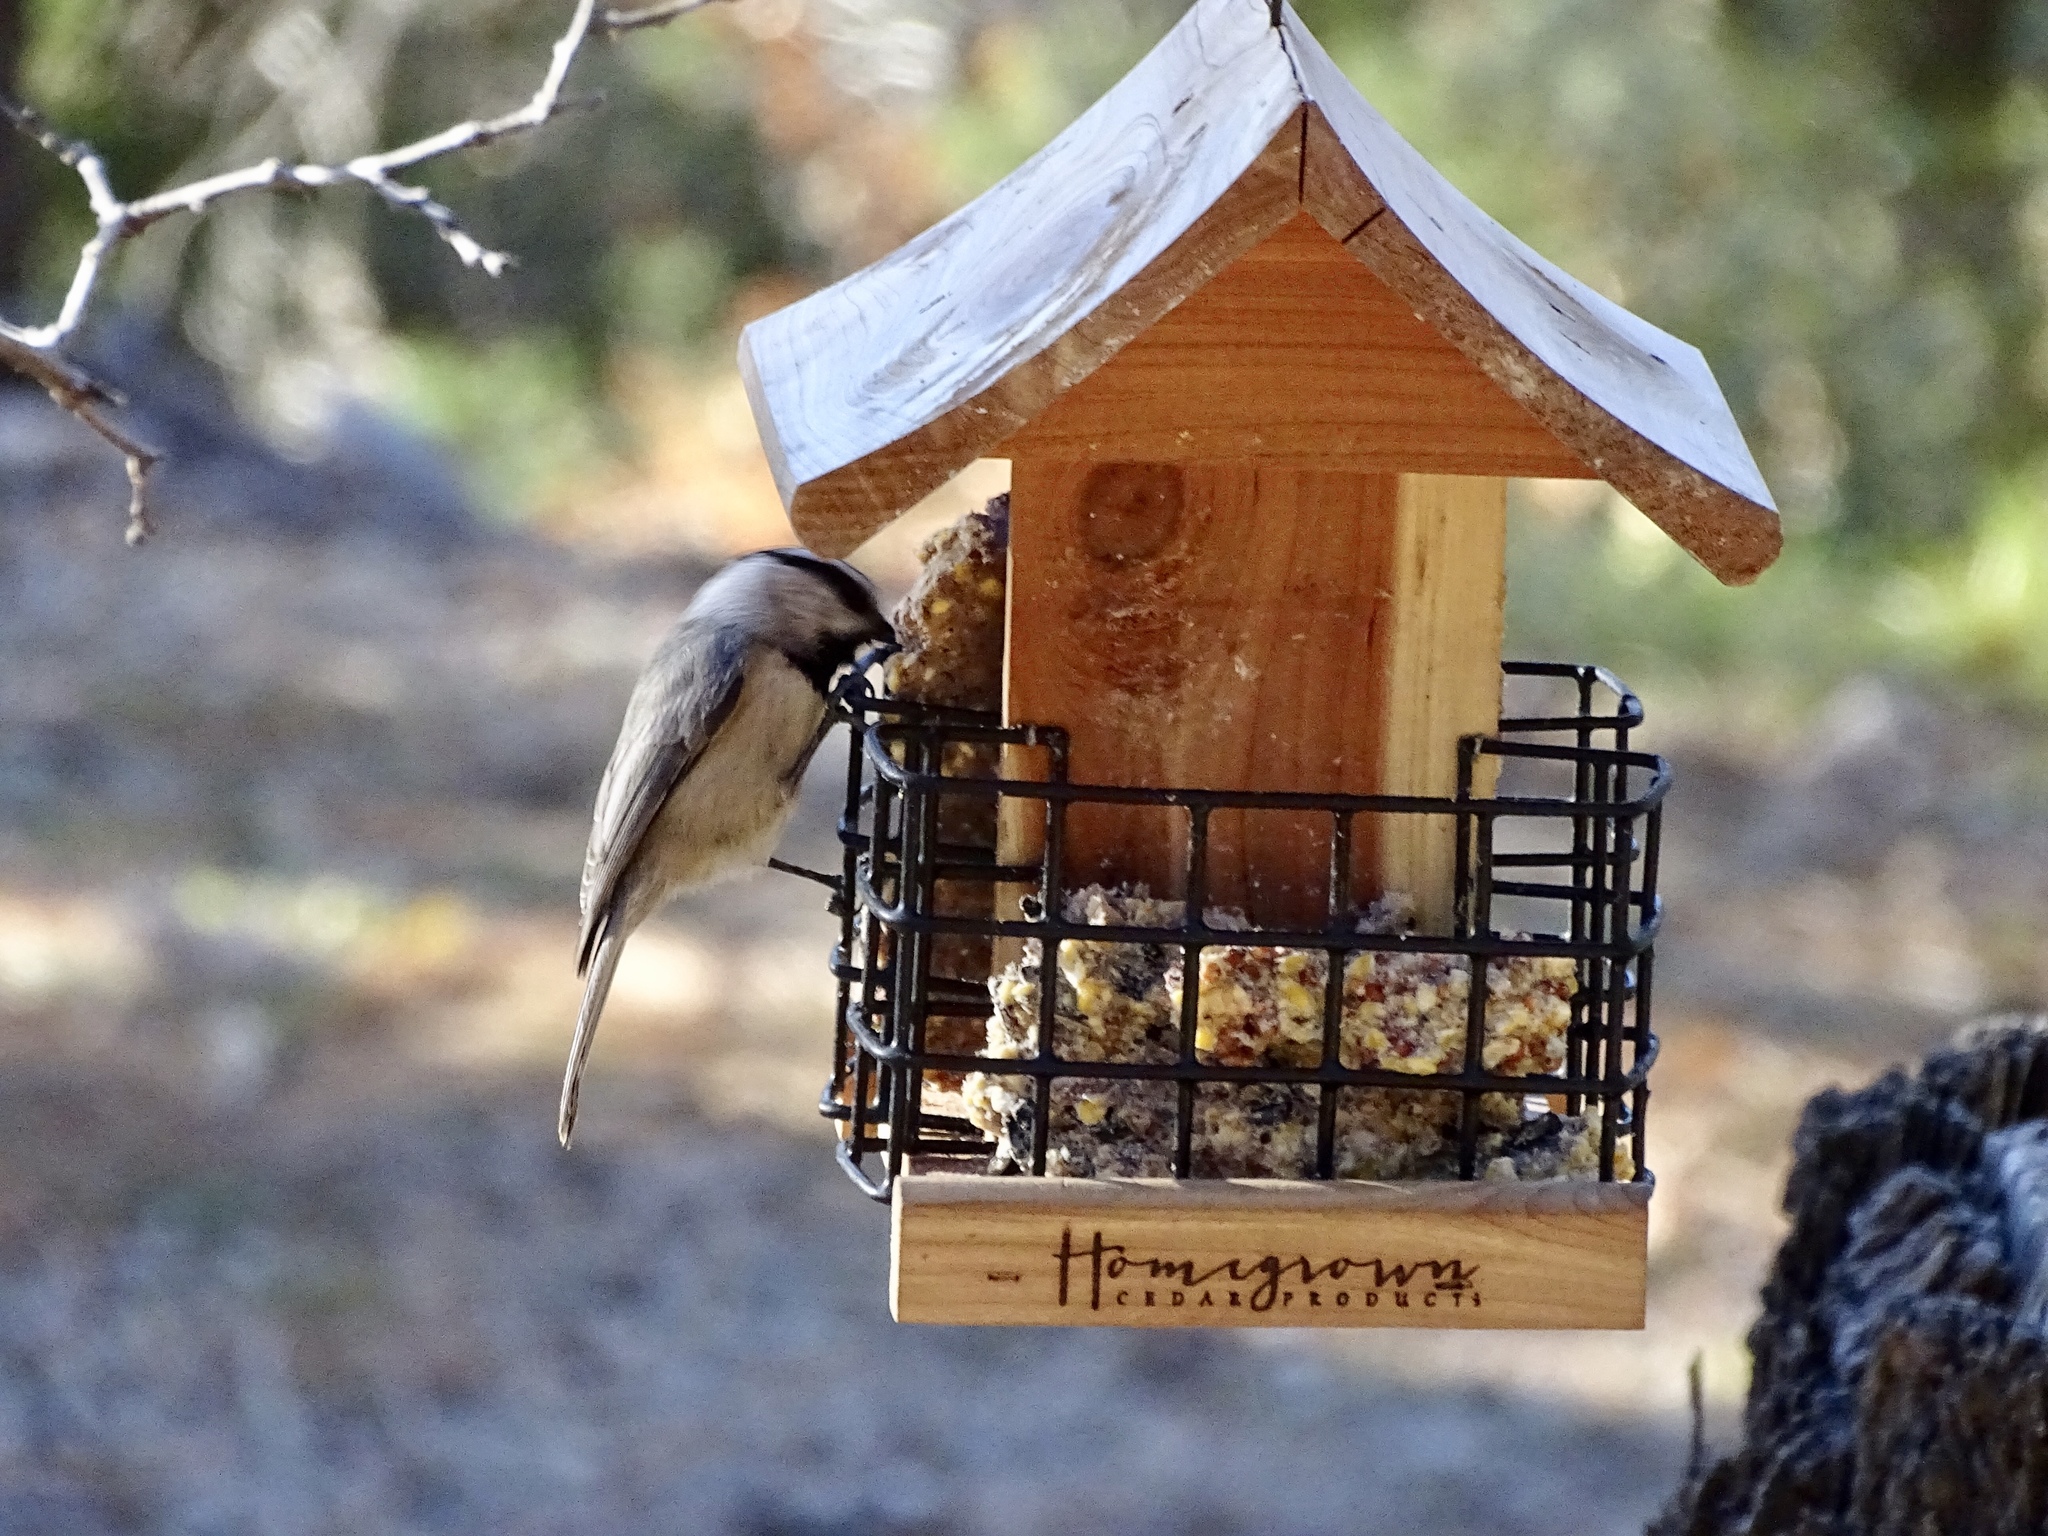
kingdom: Animalia
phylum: Chordata
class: Aves
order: Passeriformes
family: Paridae
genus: Poecile
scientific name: Poecile gambeli
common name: Mountain chickadee
